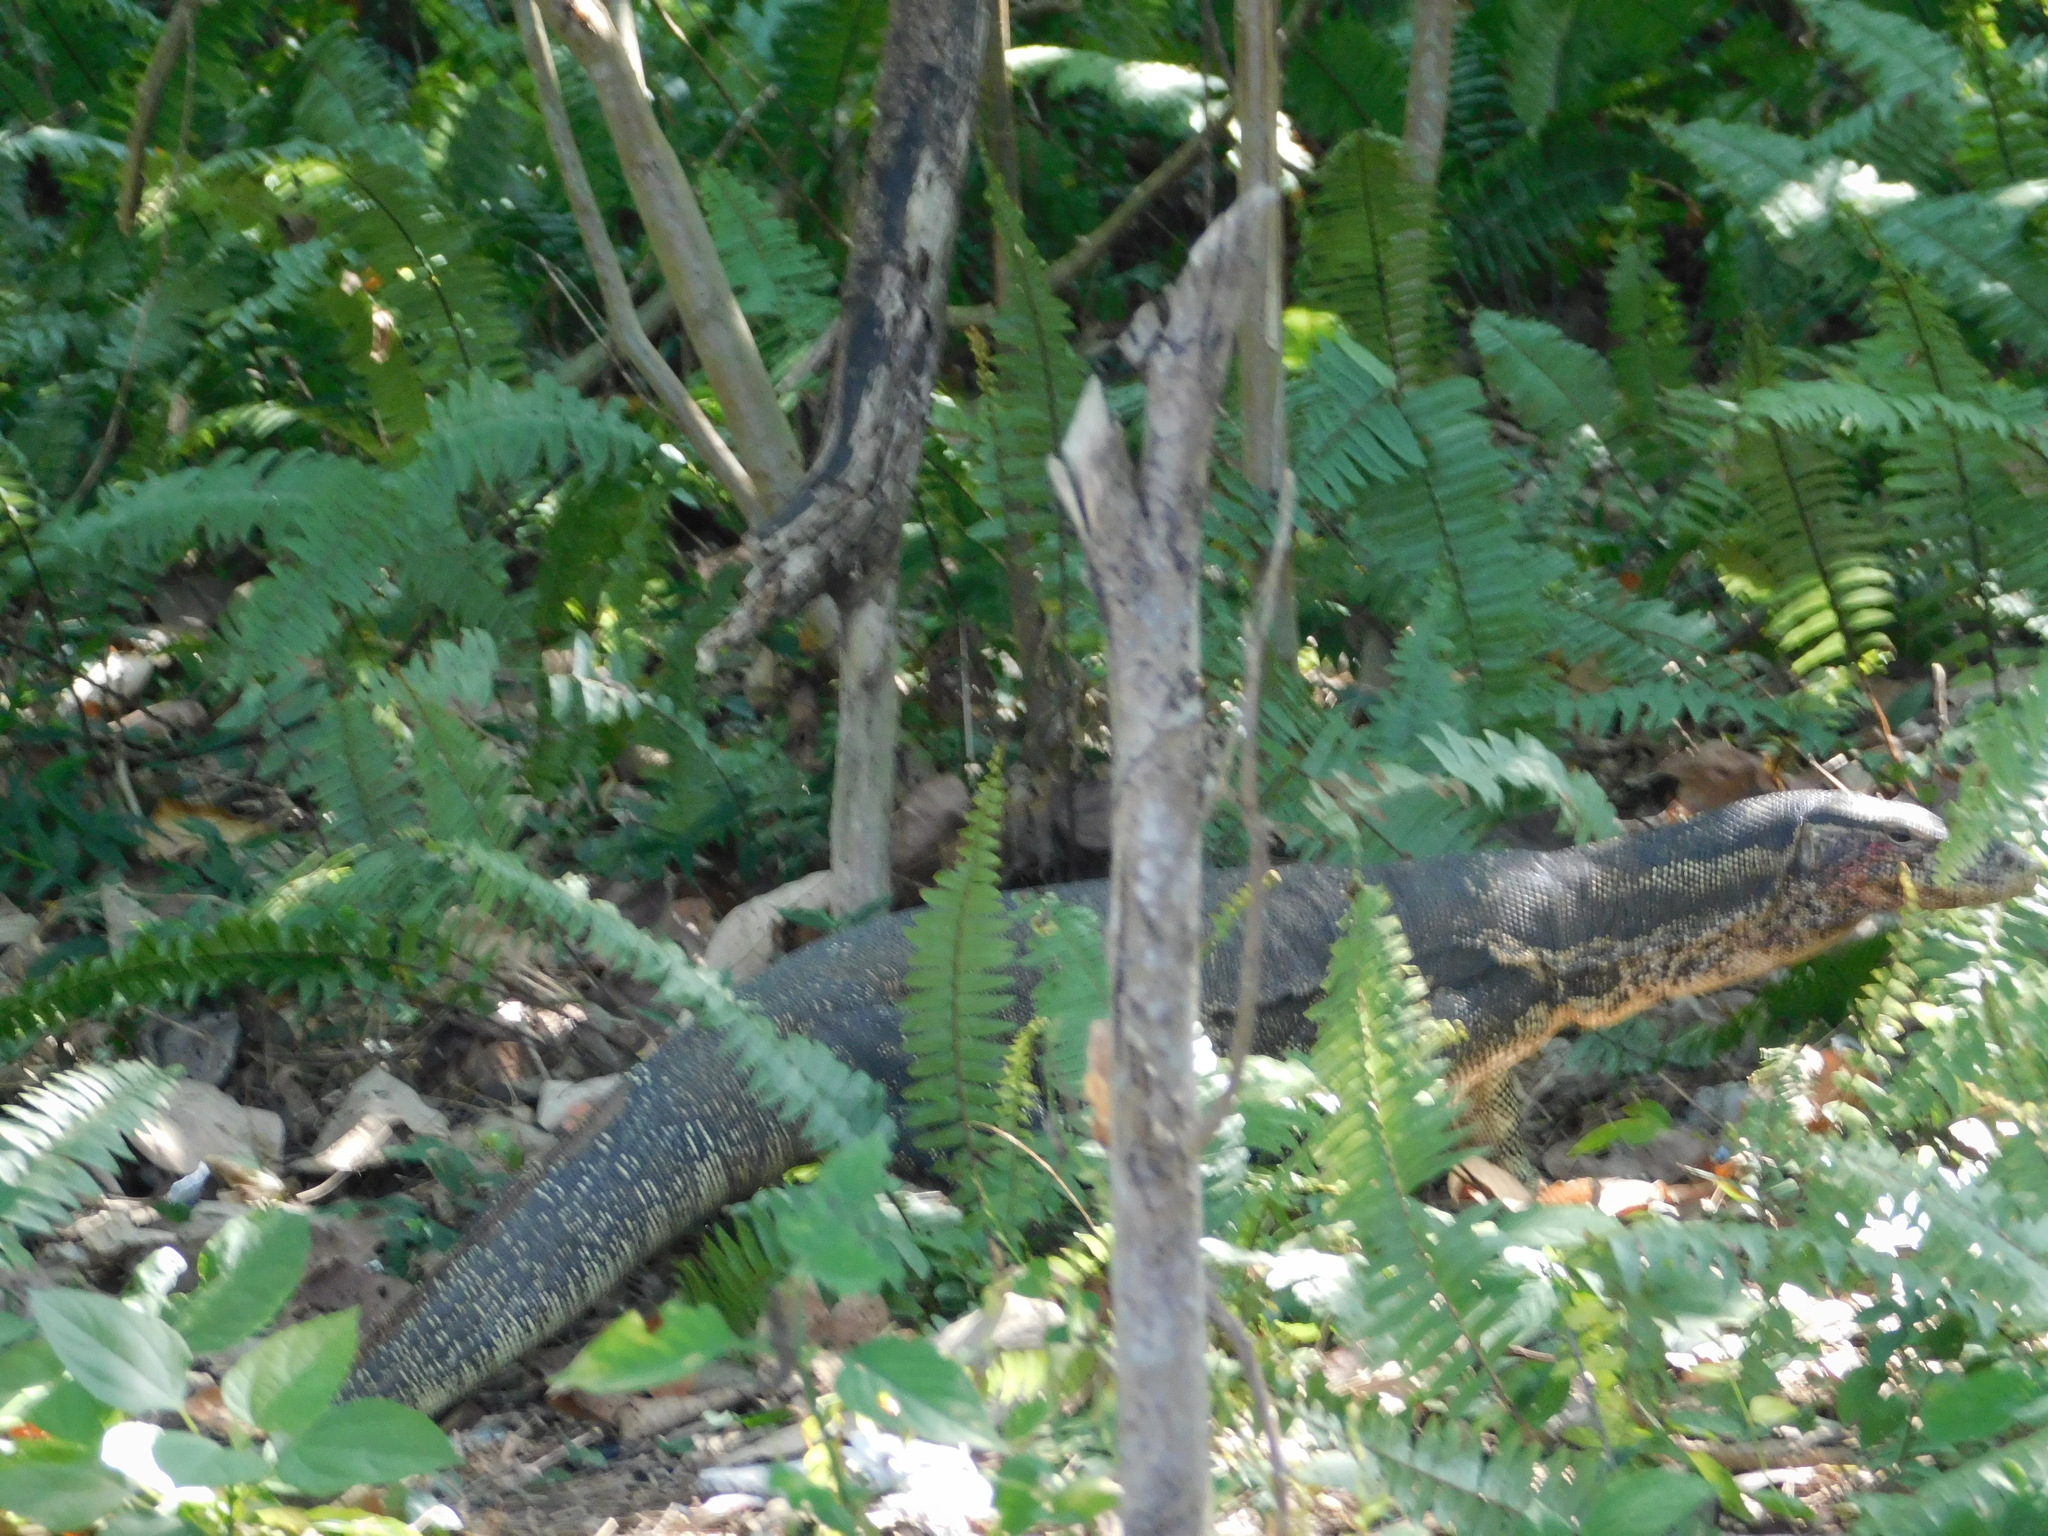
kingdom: Animalia
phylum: Chordata
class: Squamata
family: Varanidae
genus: Varanus
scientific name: Varanus salvator
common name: Common water monitor
